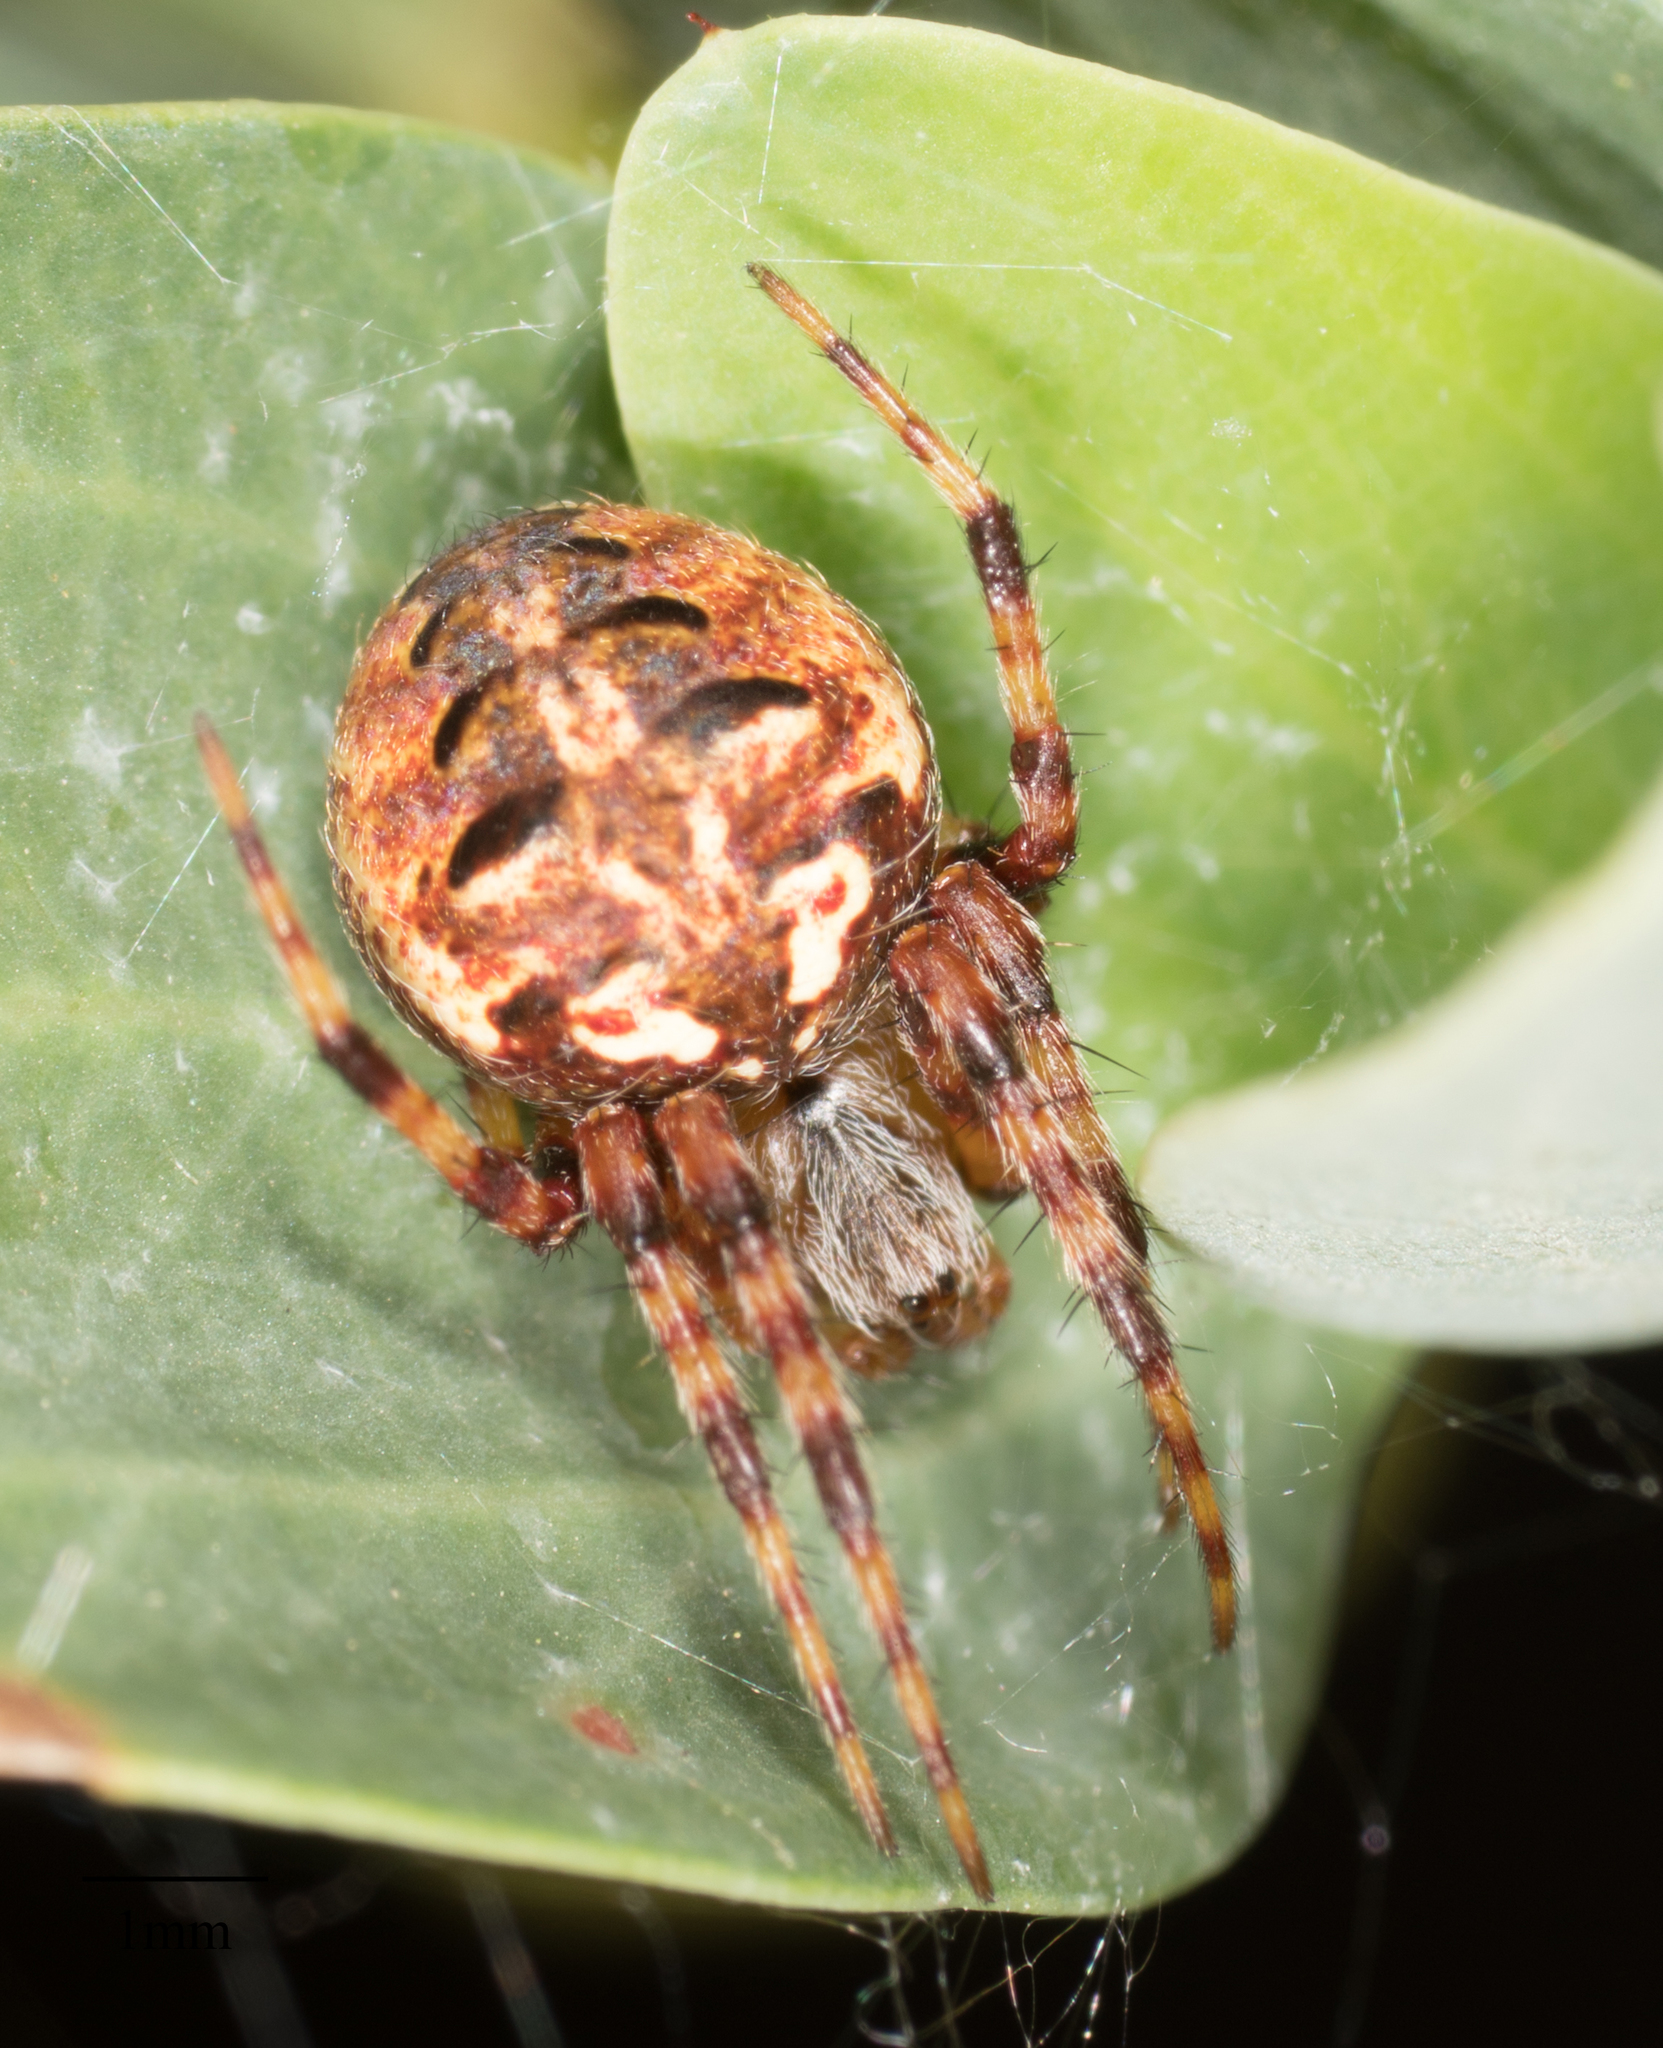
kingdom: Animalia
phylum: Arthropoda
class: Arachnida
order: Araneae
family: Araneidae
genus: Neoscona
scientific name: Neoscona arabesca
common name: Orb weavers
